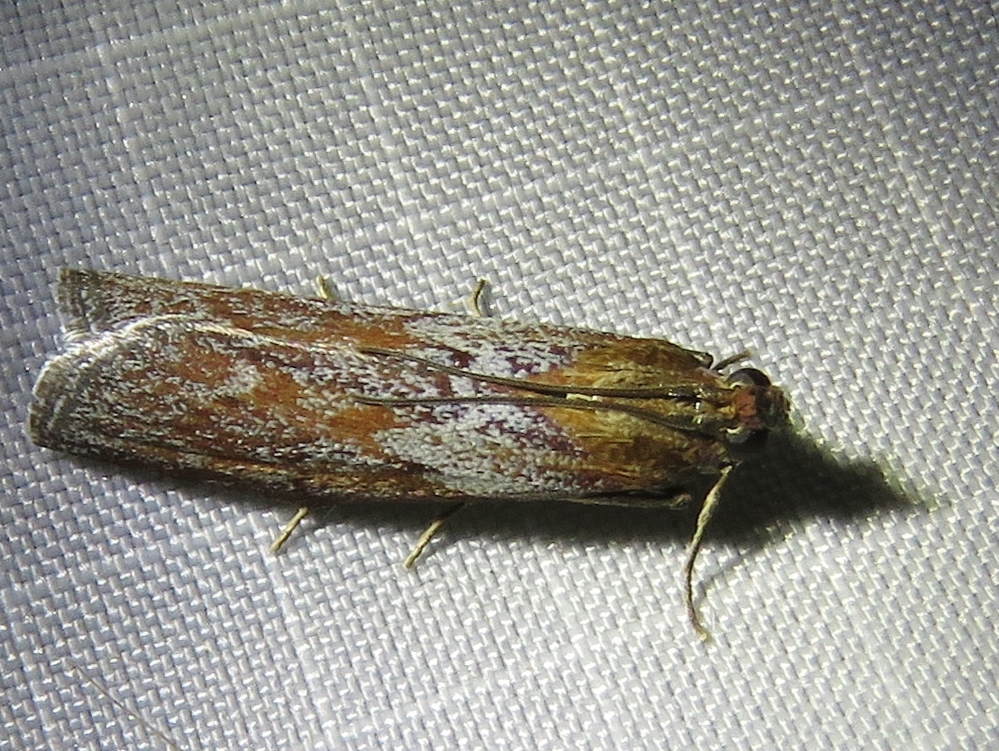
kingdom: Animalia
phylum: Arthropoda
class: Insecta
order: Lepidoptera
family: Pyralidae
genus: Selagia
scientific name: Selagia spadicella
